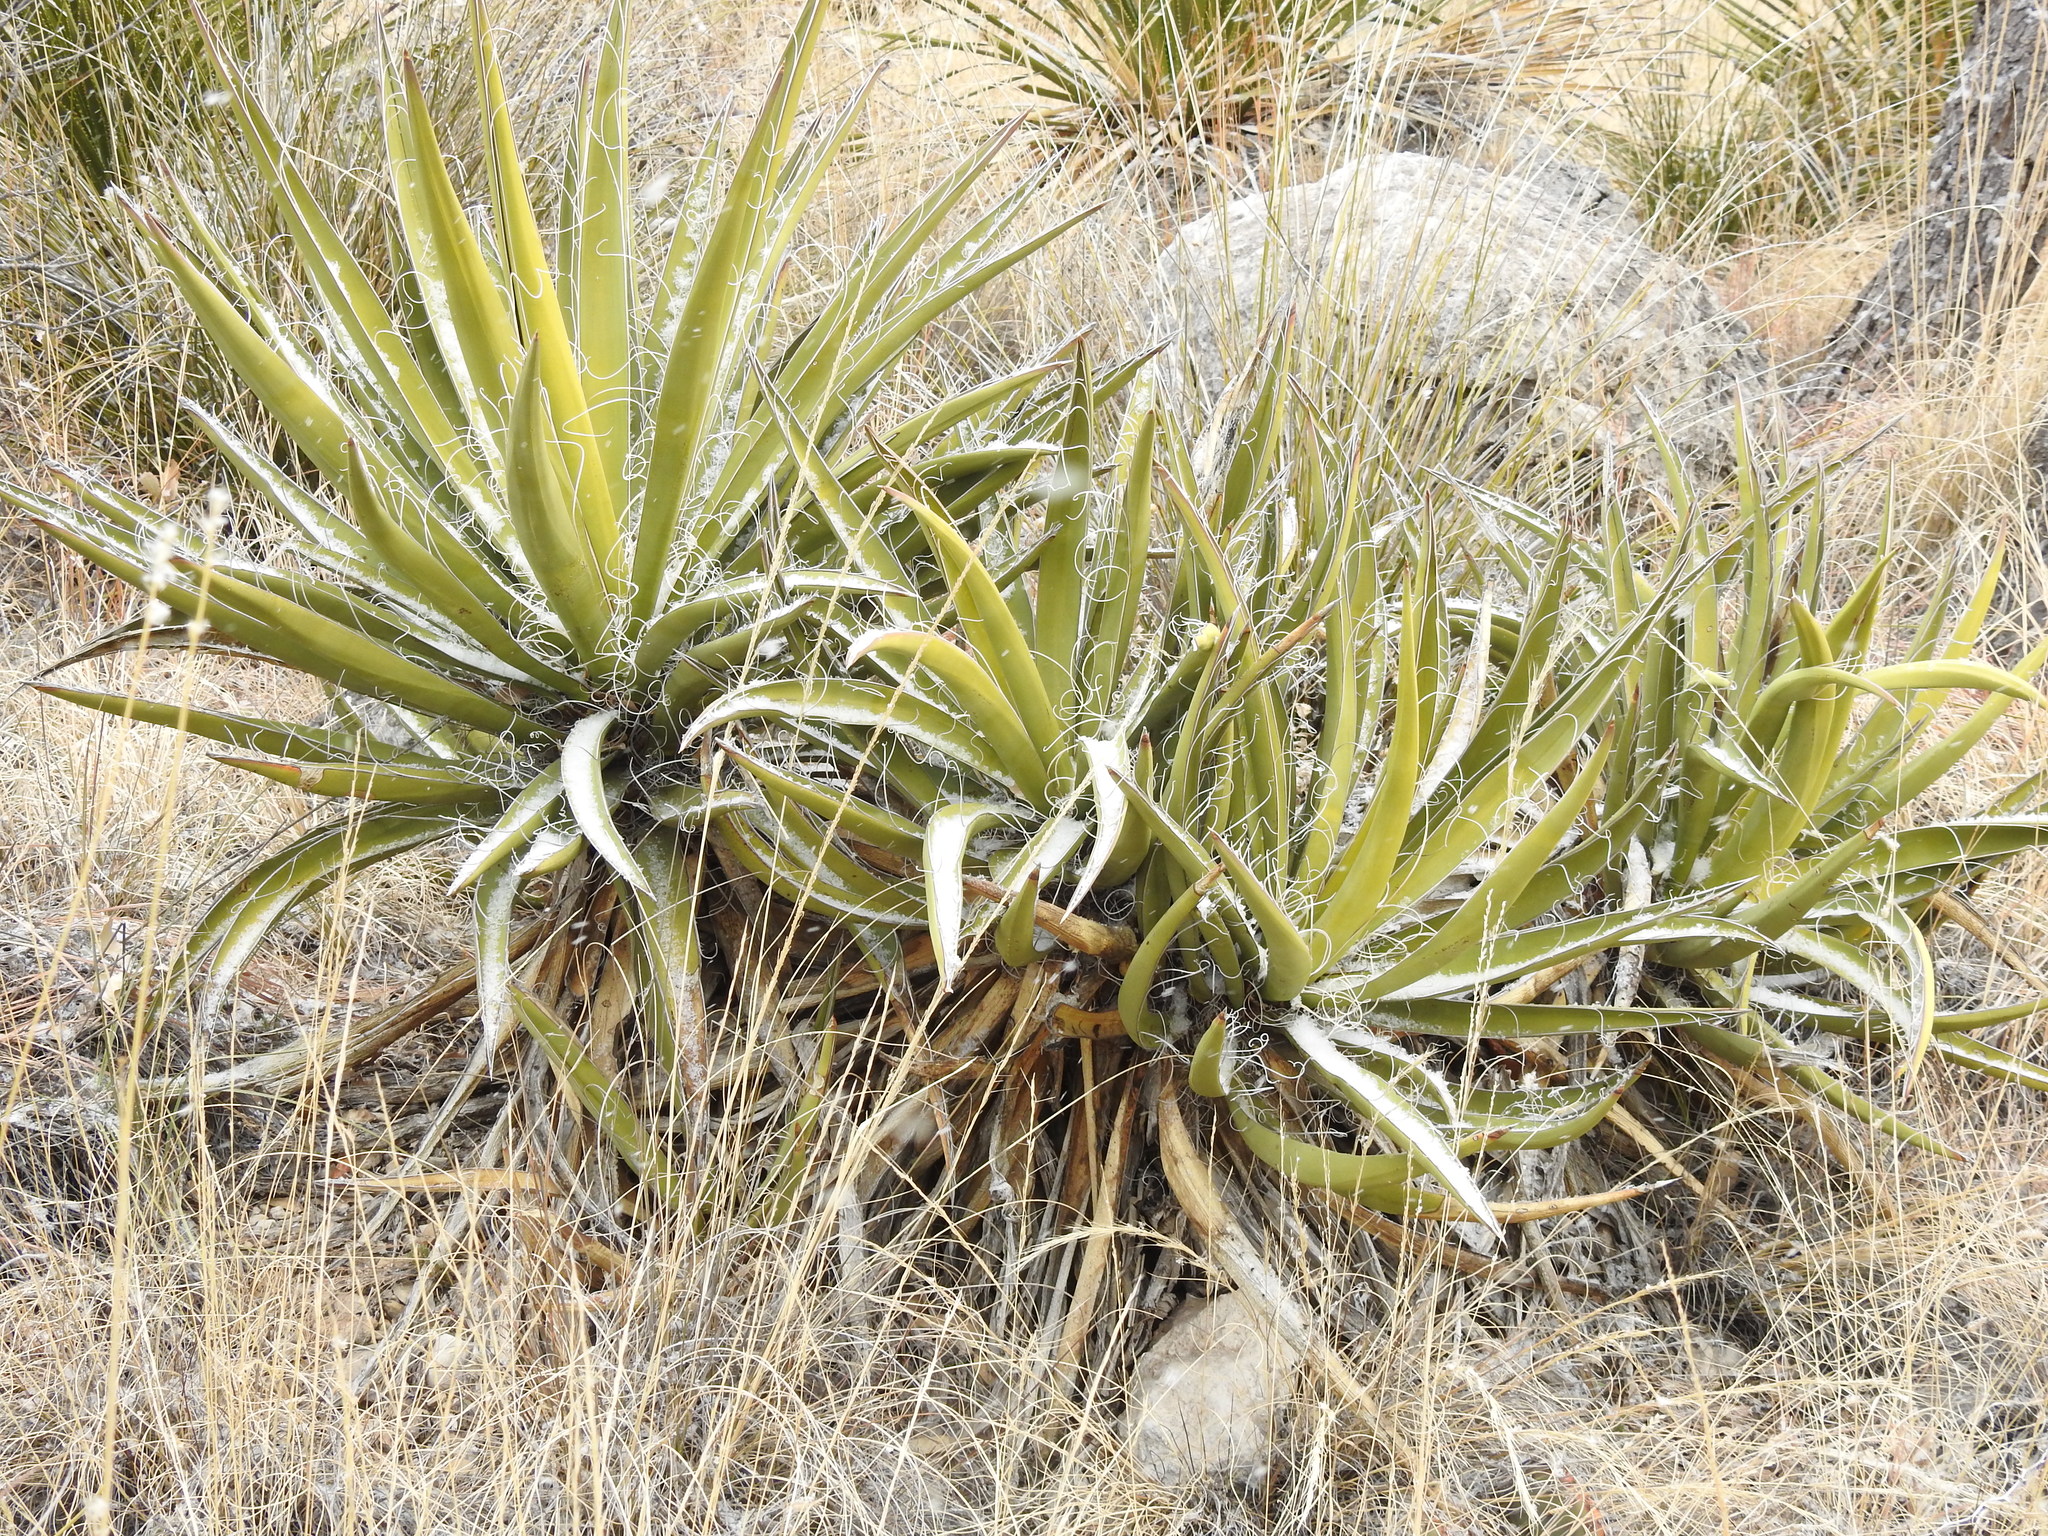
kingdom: Plantae
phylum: Tracheophyta
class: Liliopsida
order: Asparagales
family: Asparagaceae
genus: Yucca
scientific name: Yucca baccata
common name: Banana yucca
